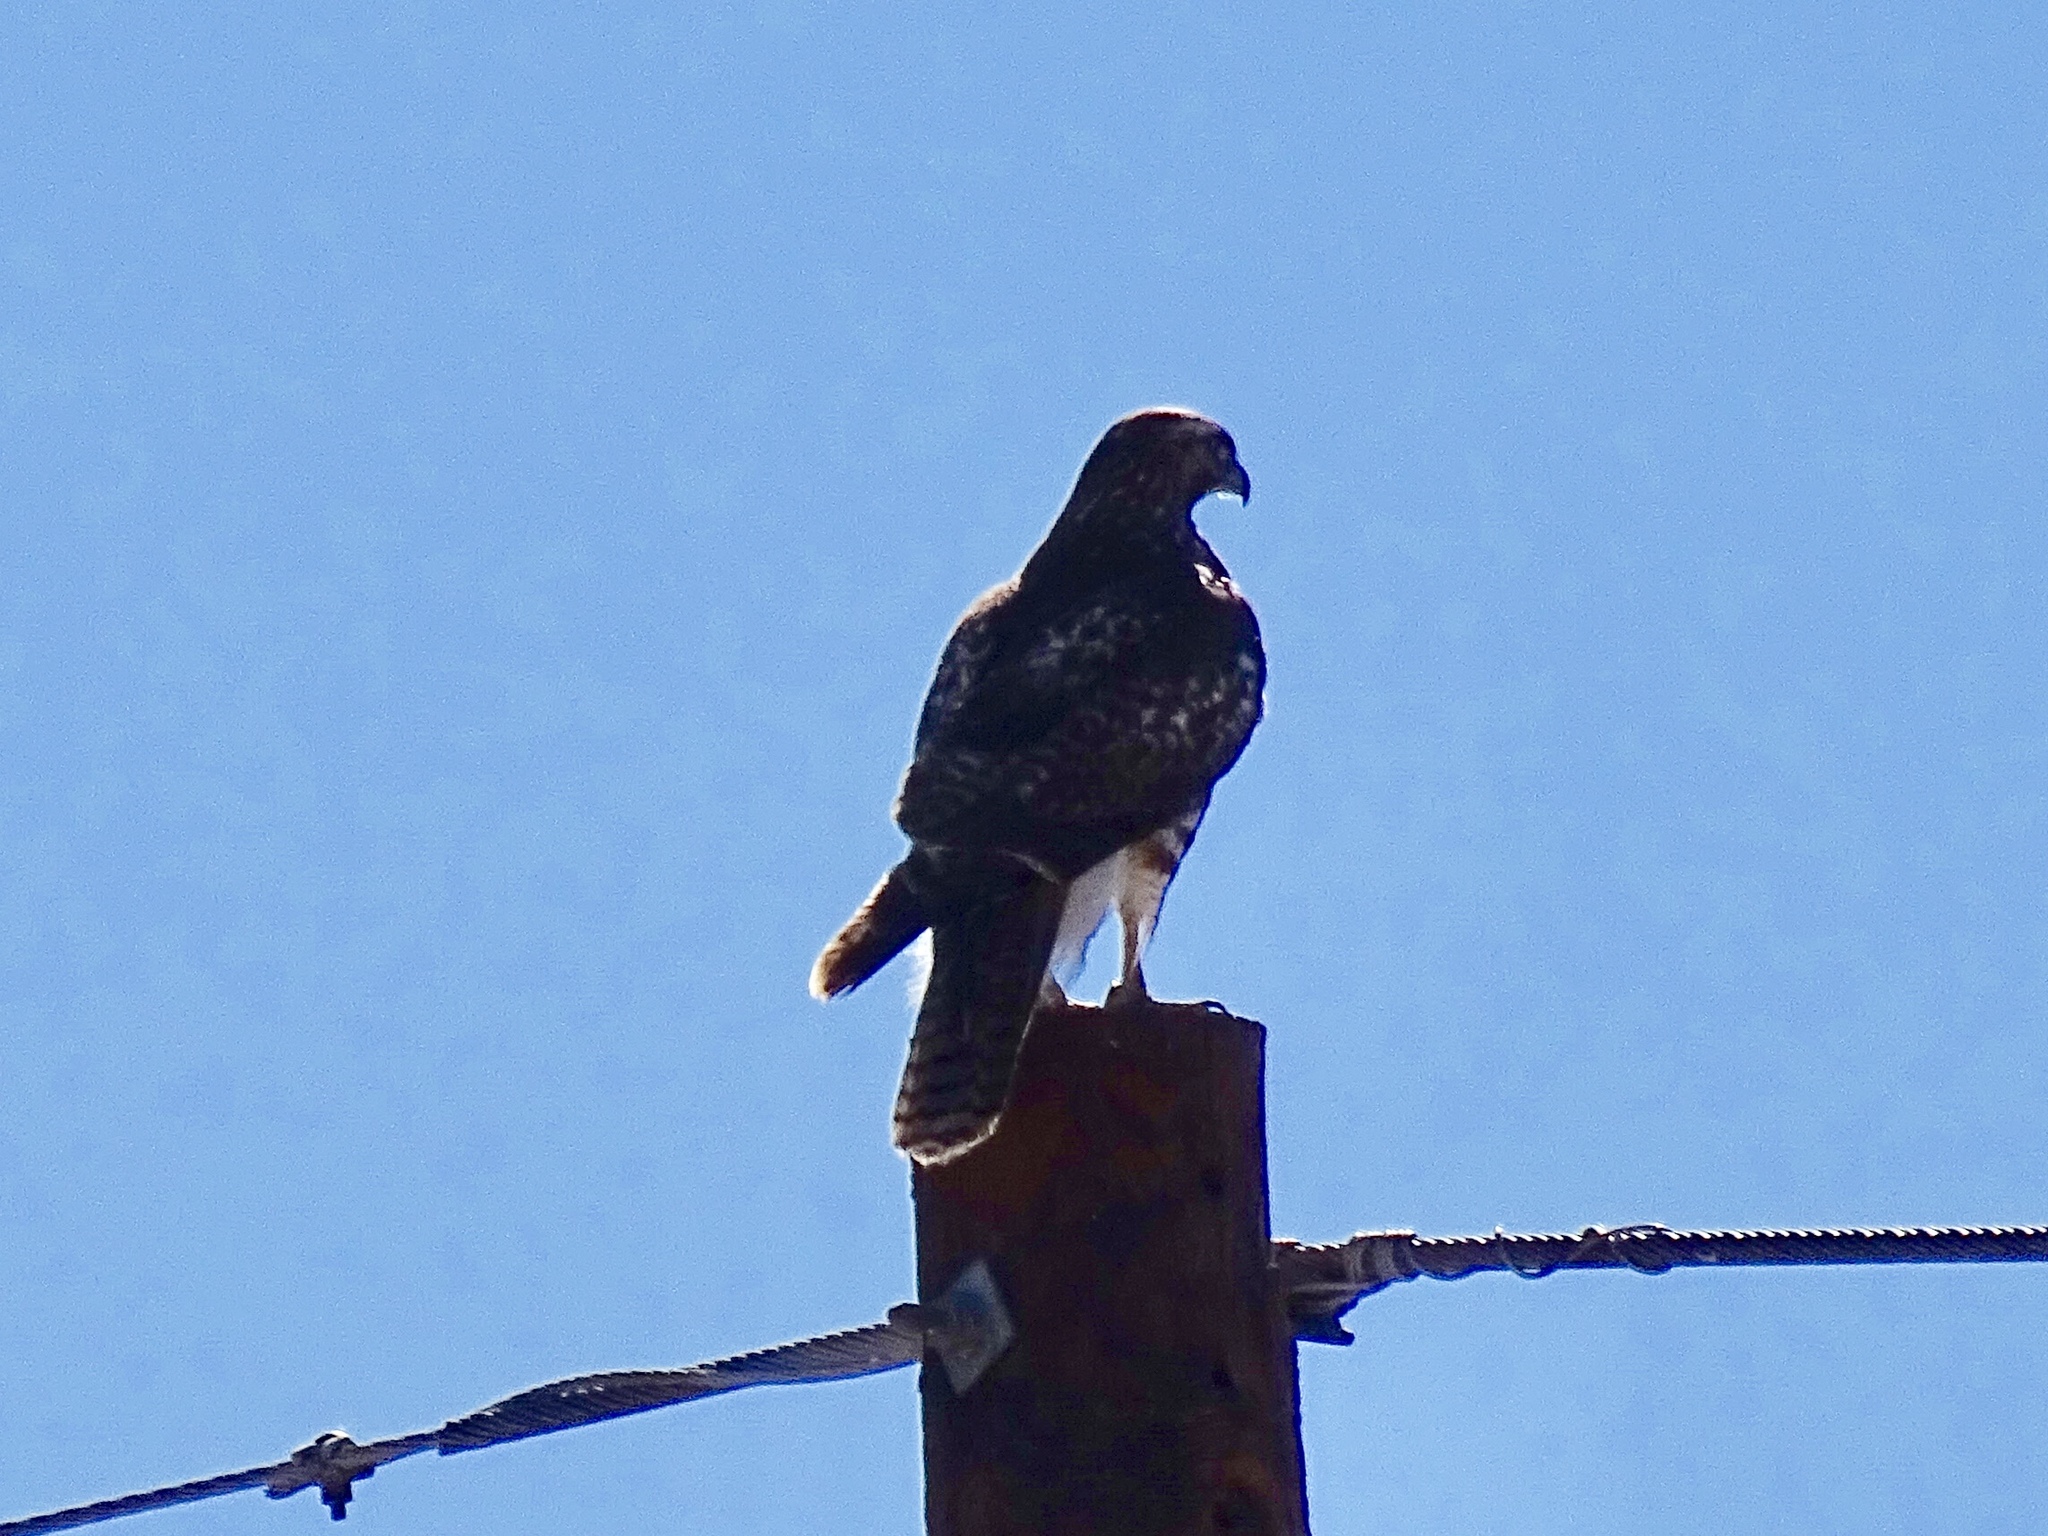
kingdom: Animalia
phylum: Chordata
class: Aves
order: Accipitriformes
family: Accipitridae
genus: Buteo
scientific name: Buteo jamaicensis
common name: Red-tailed hawk
